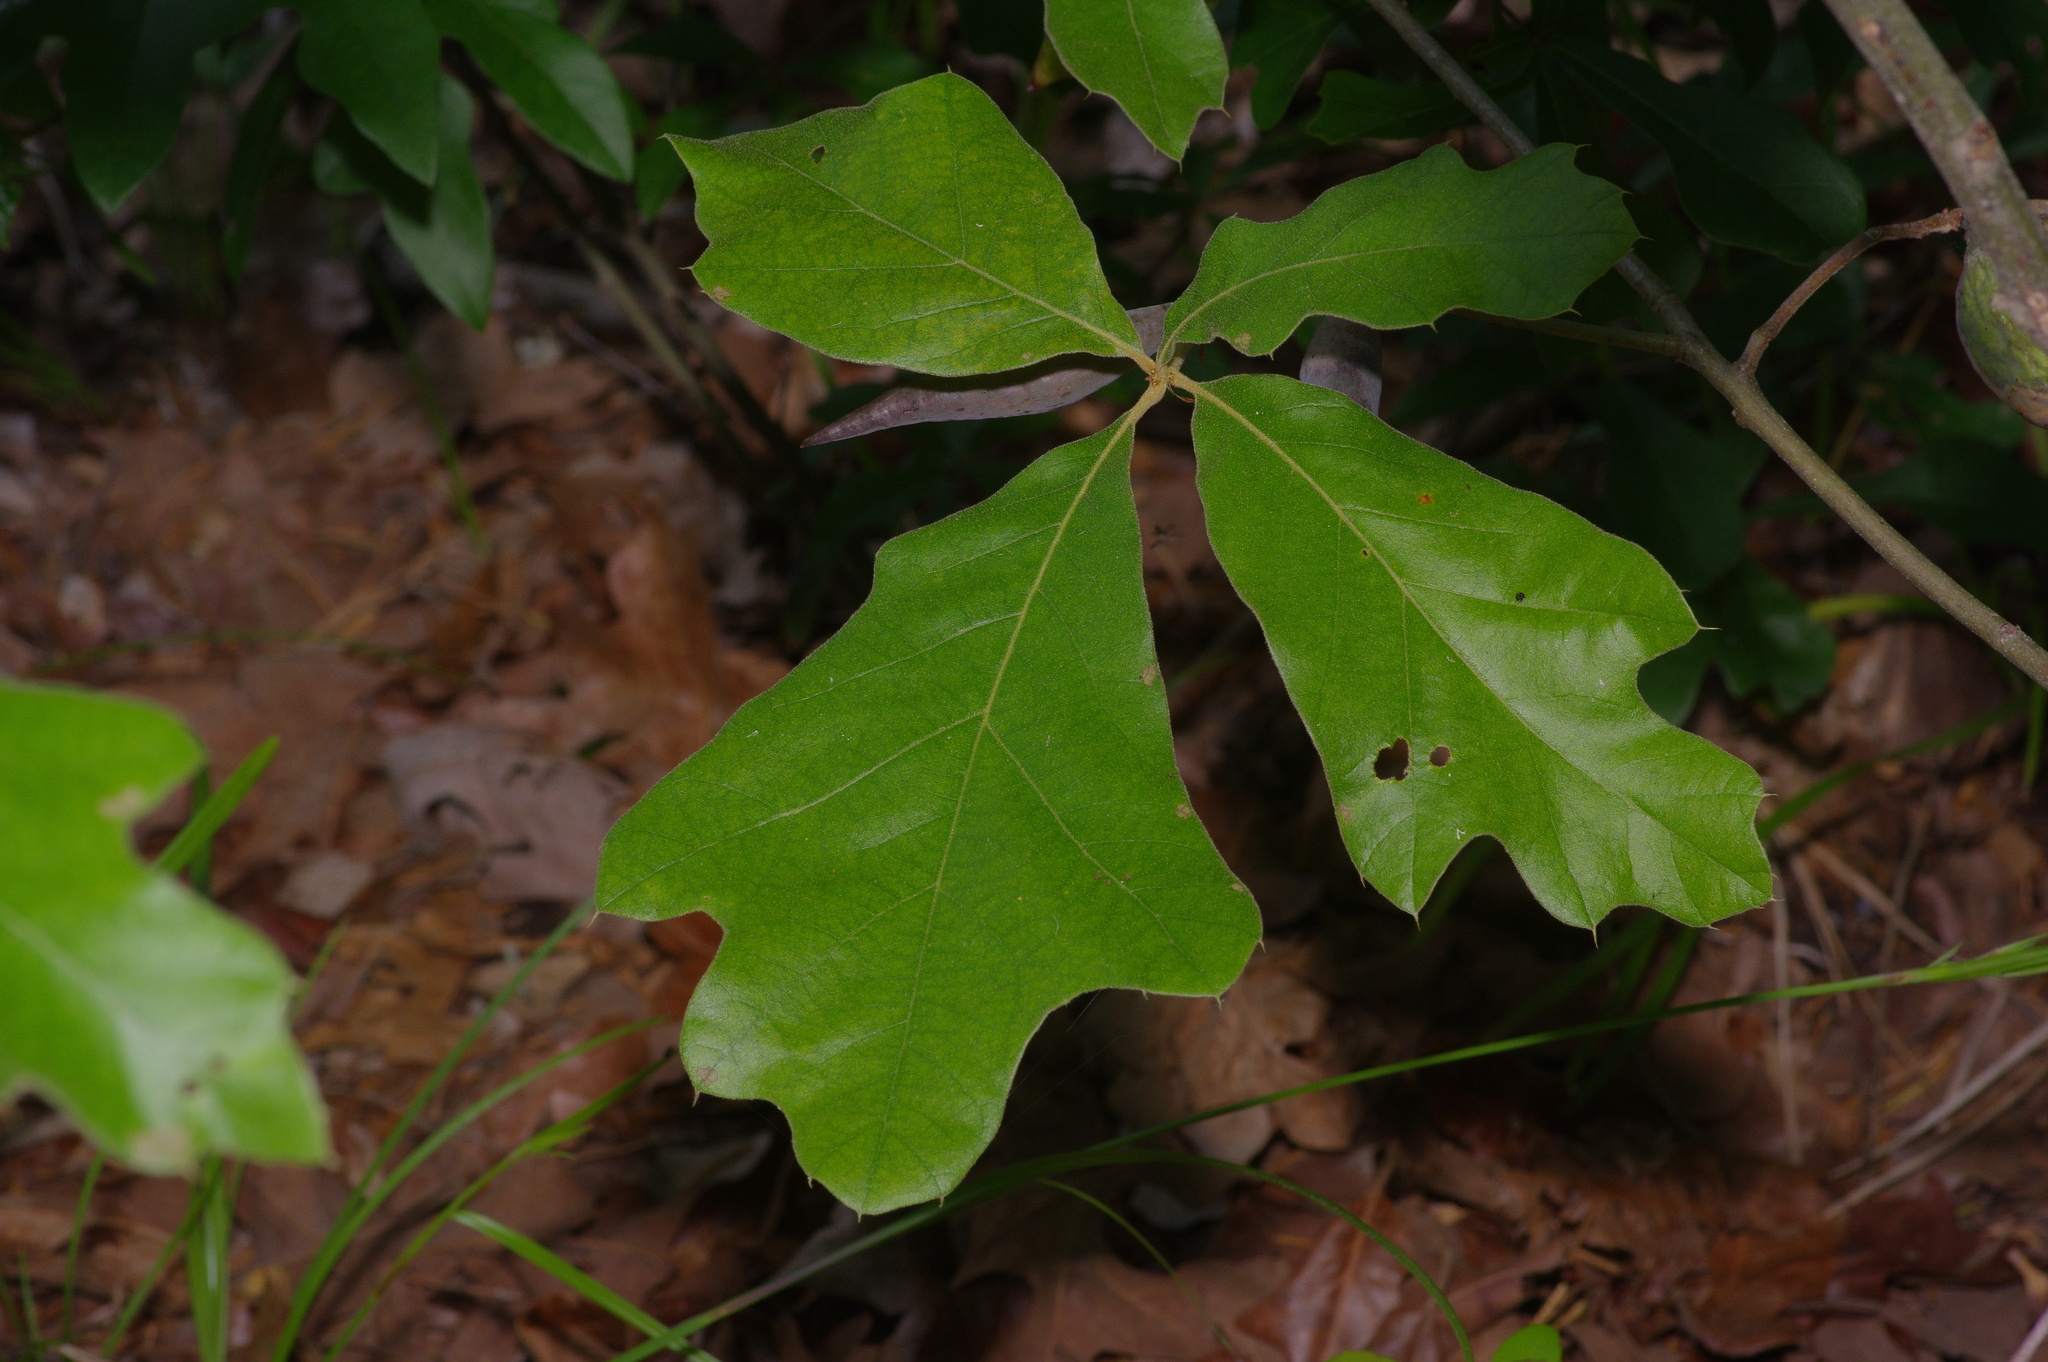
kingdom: Animalia
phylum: Arthropoda
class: Insecta
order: Hymenoptera
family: Cynipidae
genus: Amphibolips
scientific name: Amphibolips
